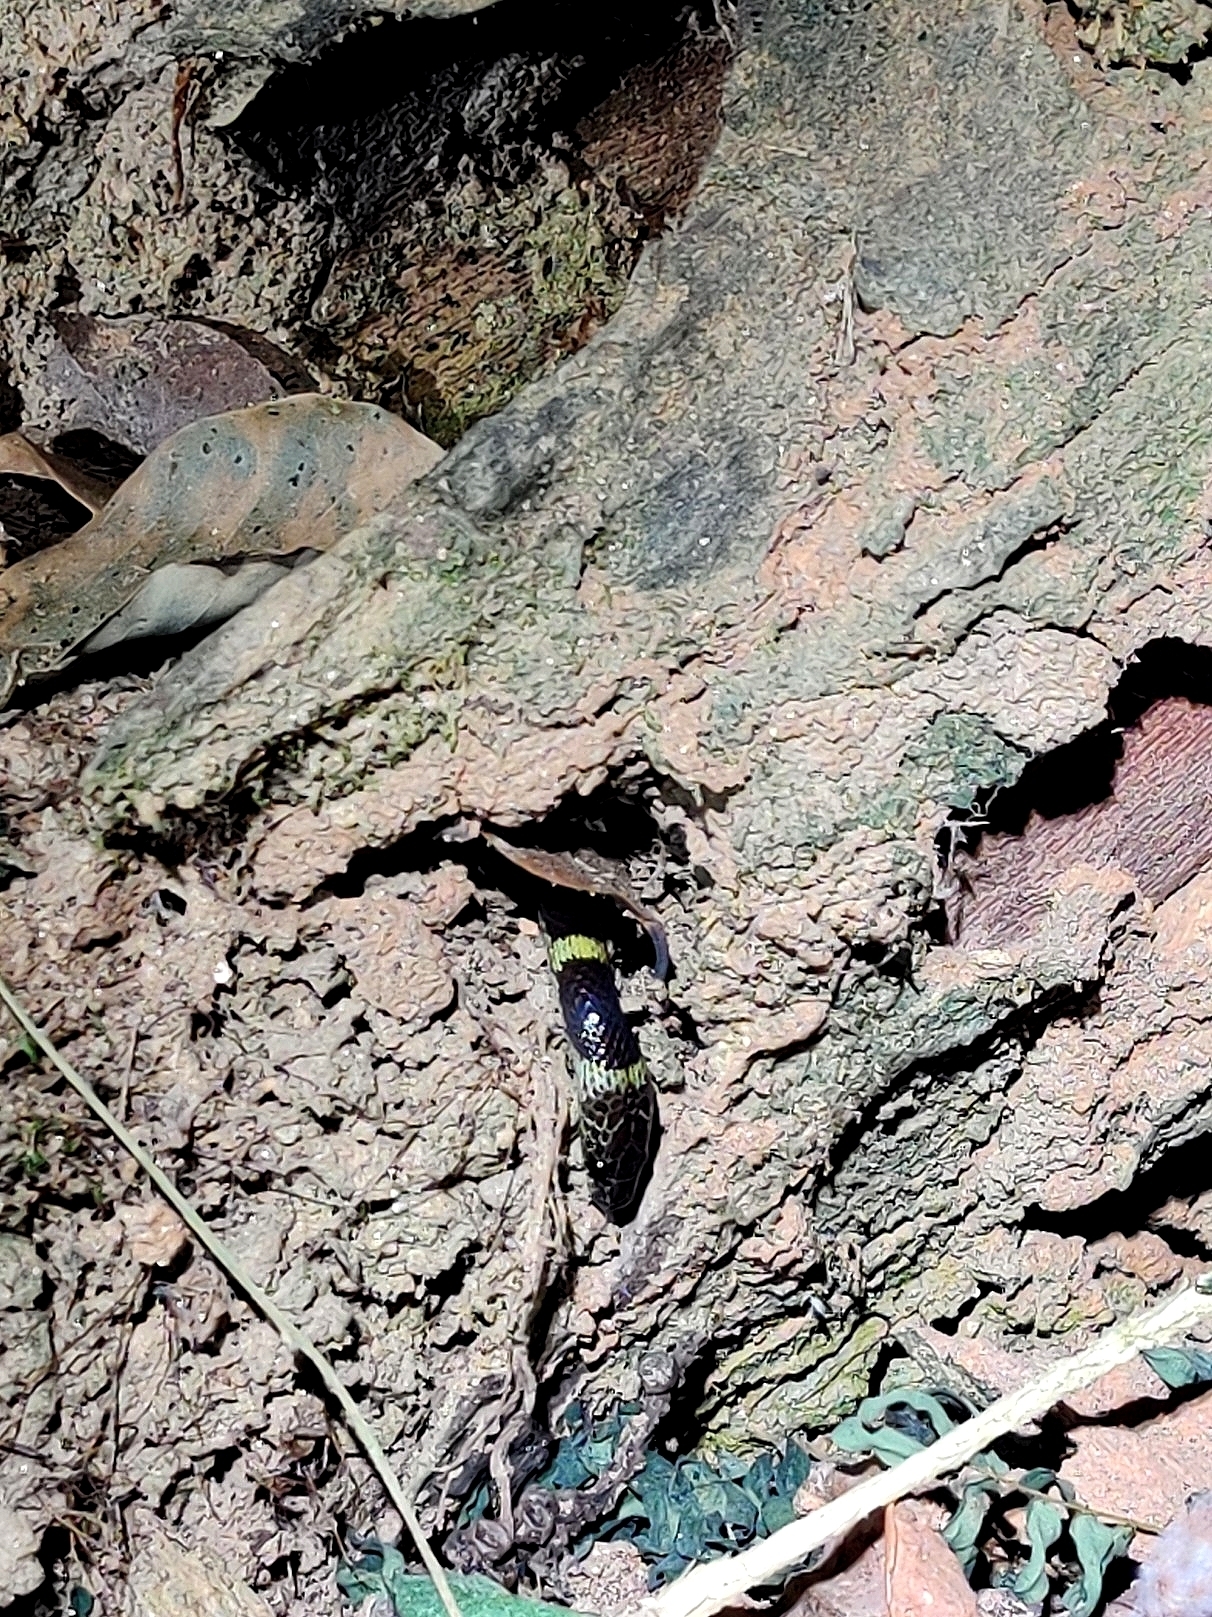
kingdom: Animalia
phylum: Chordata
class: Squamata
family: Colubridae
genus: Lycodon
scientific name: Lycodon travancoricus
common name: Travancore wolf snake
